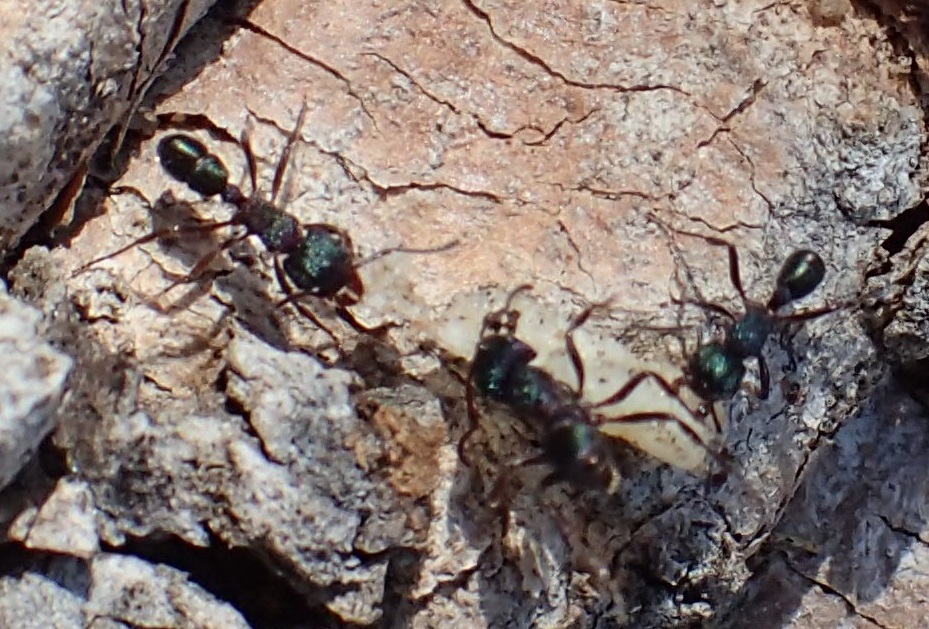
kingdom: Animalia
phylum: Arthropoda
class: Insecta
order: Hymenoptera
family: Formicidae
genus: Rhytidoponera
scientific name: Rhytidoponera metallica
